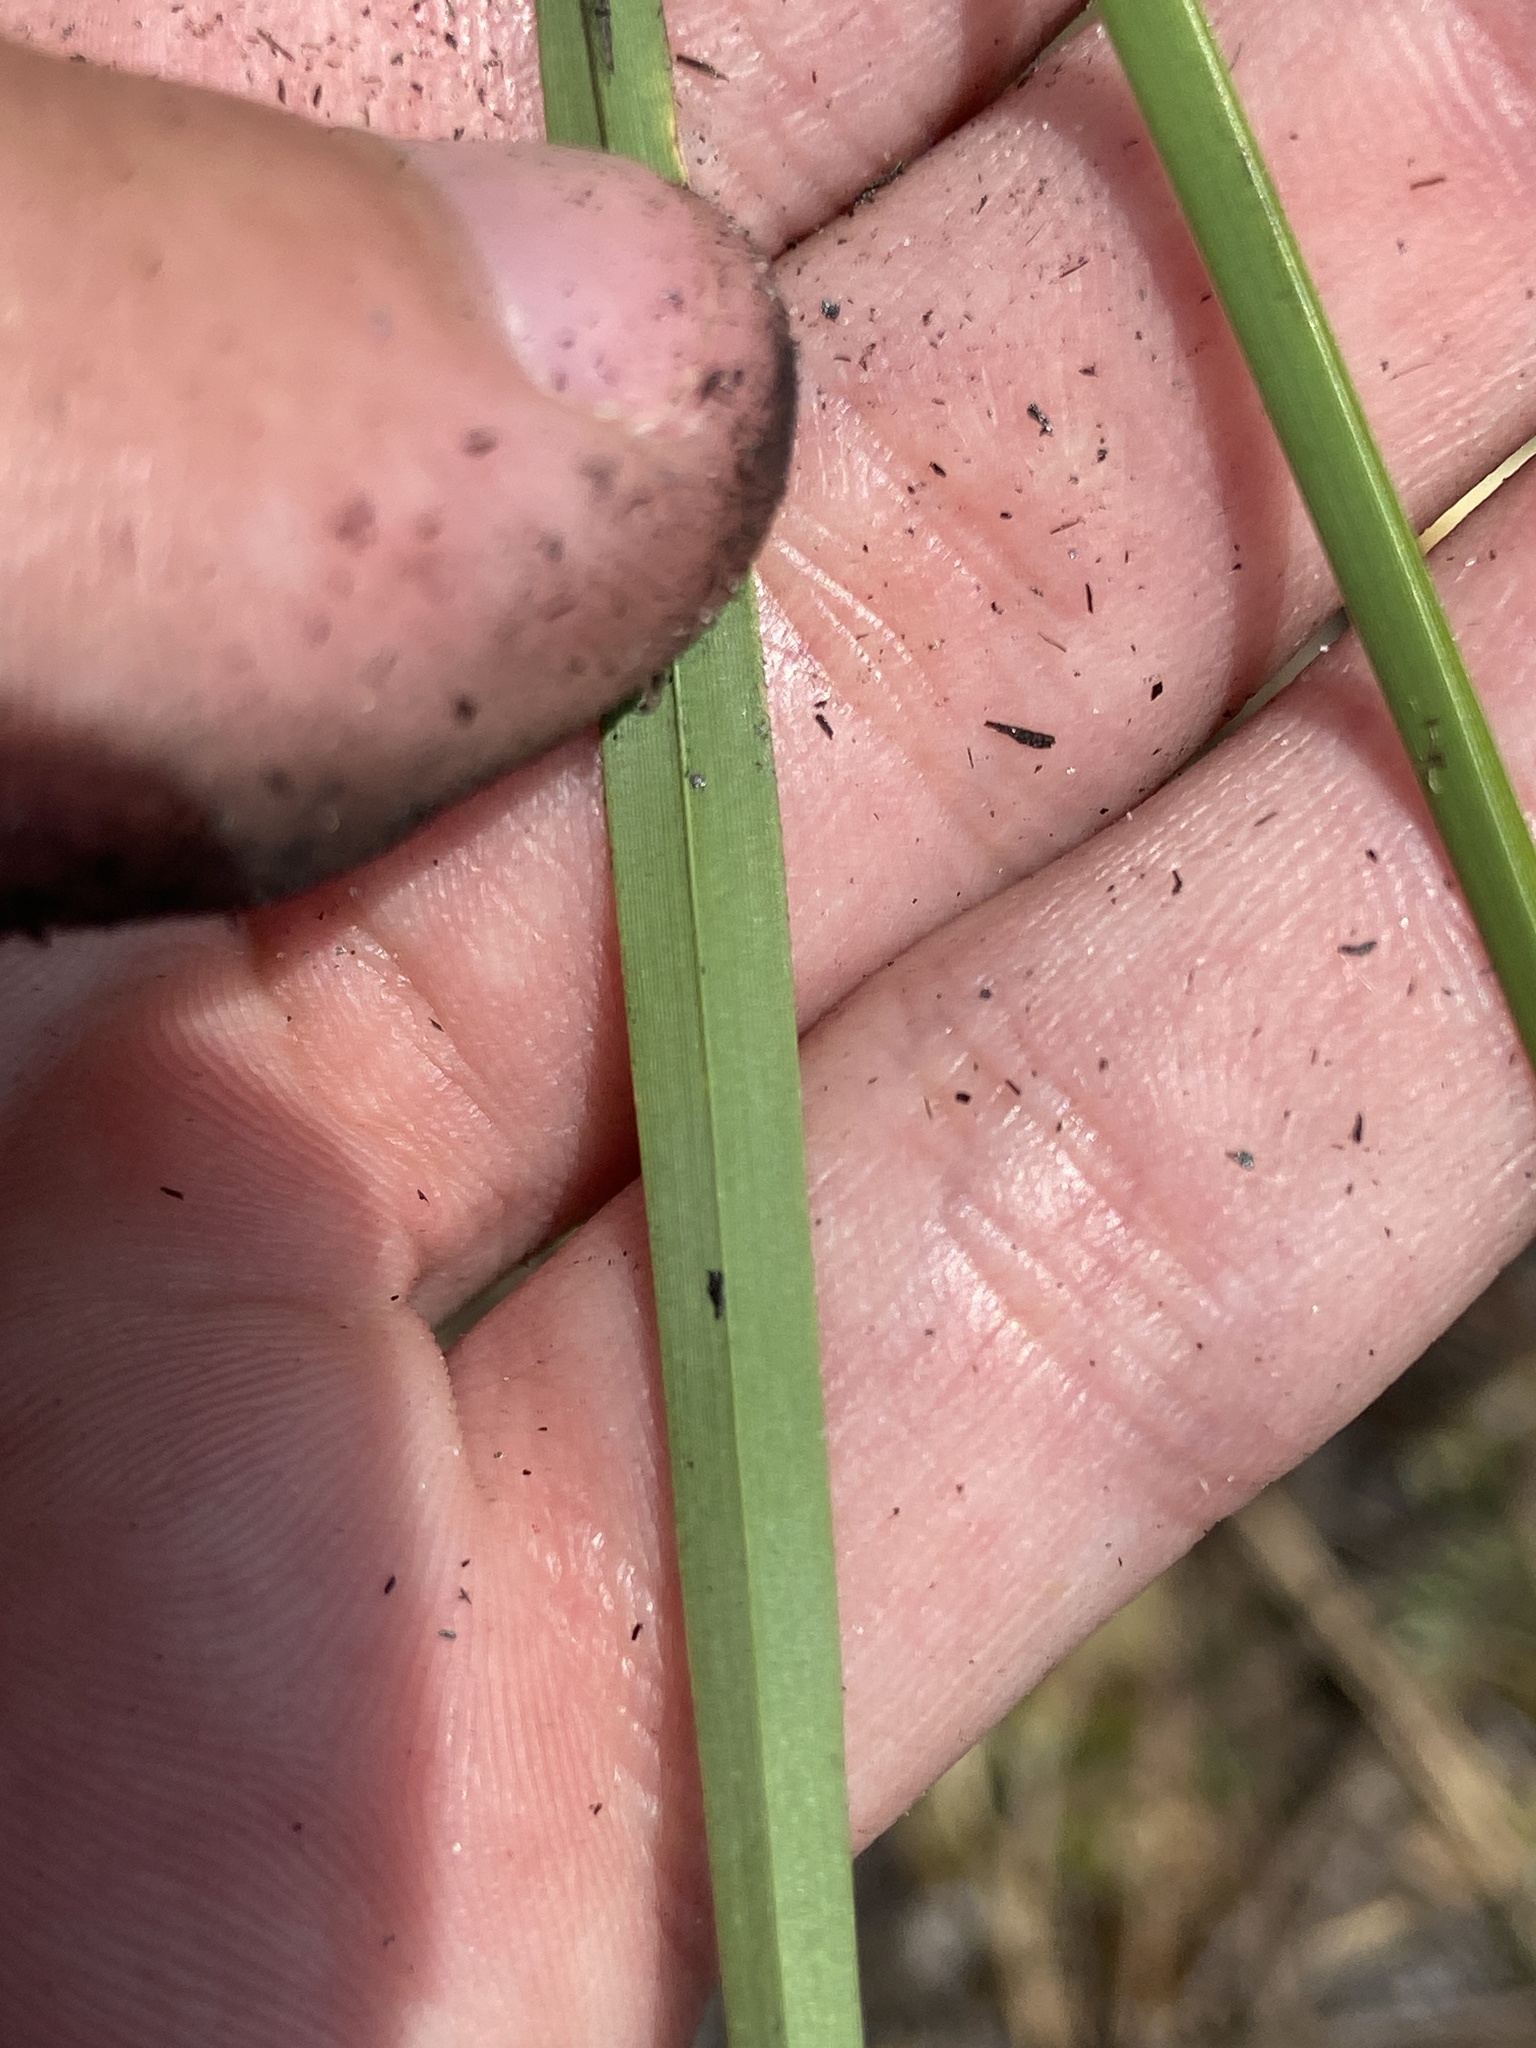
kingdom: Plantae
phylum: Tracheophyta
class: Liliopsida
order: Poales
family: Poaceae
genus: Andropogon
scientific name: Andropogon brachystachyus
